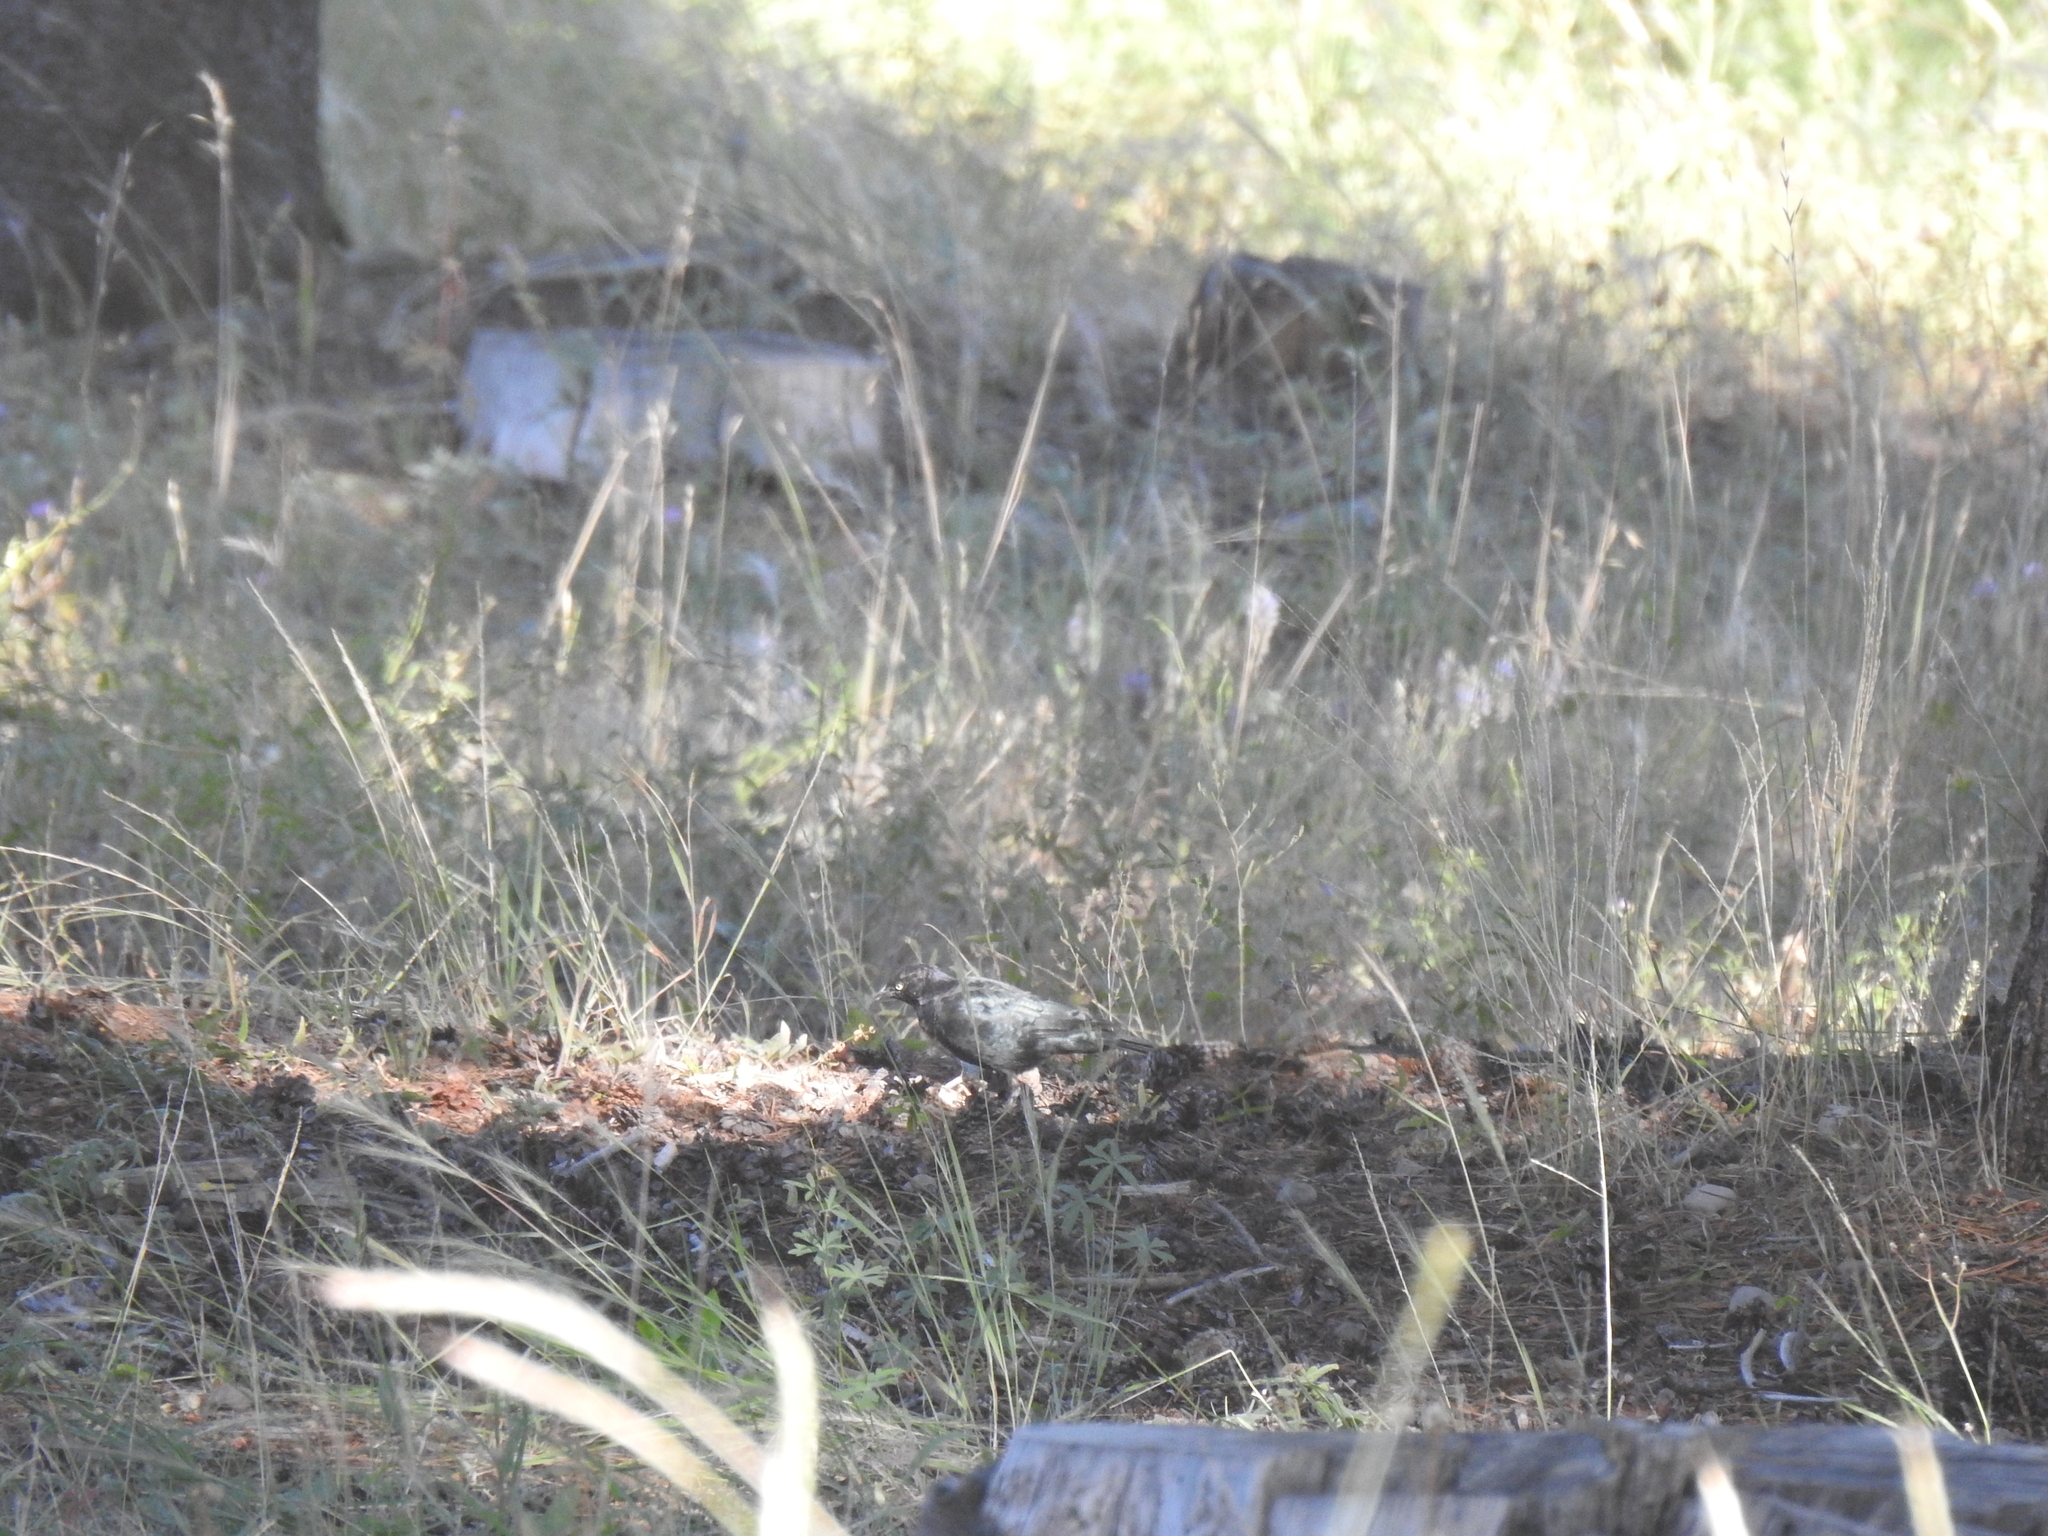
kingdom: Animalia
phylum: Chordata
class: Aves
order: Passeriformes
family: Icteridae
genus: Euphagus
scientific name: Euphagus cyanocephalus
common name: Brewer's blackbird
